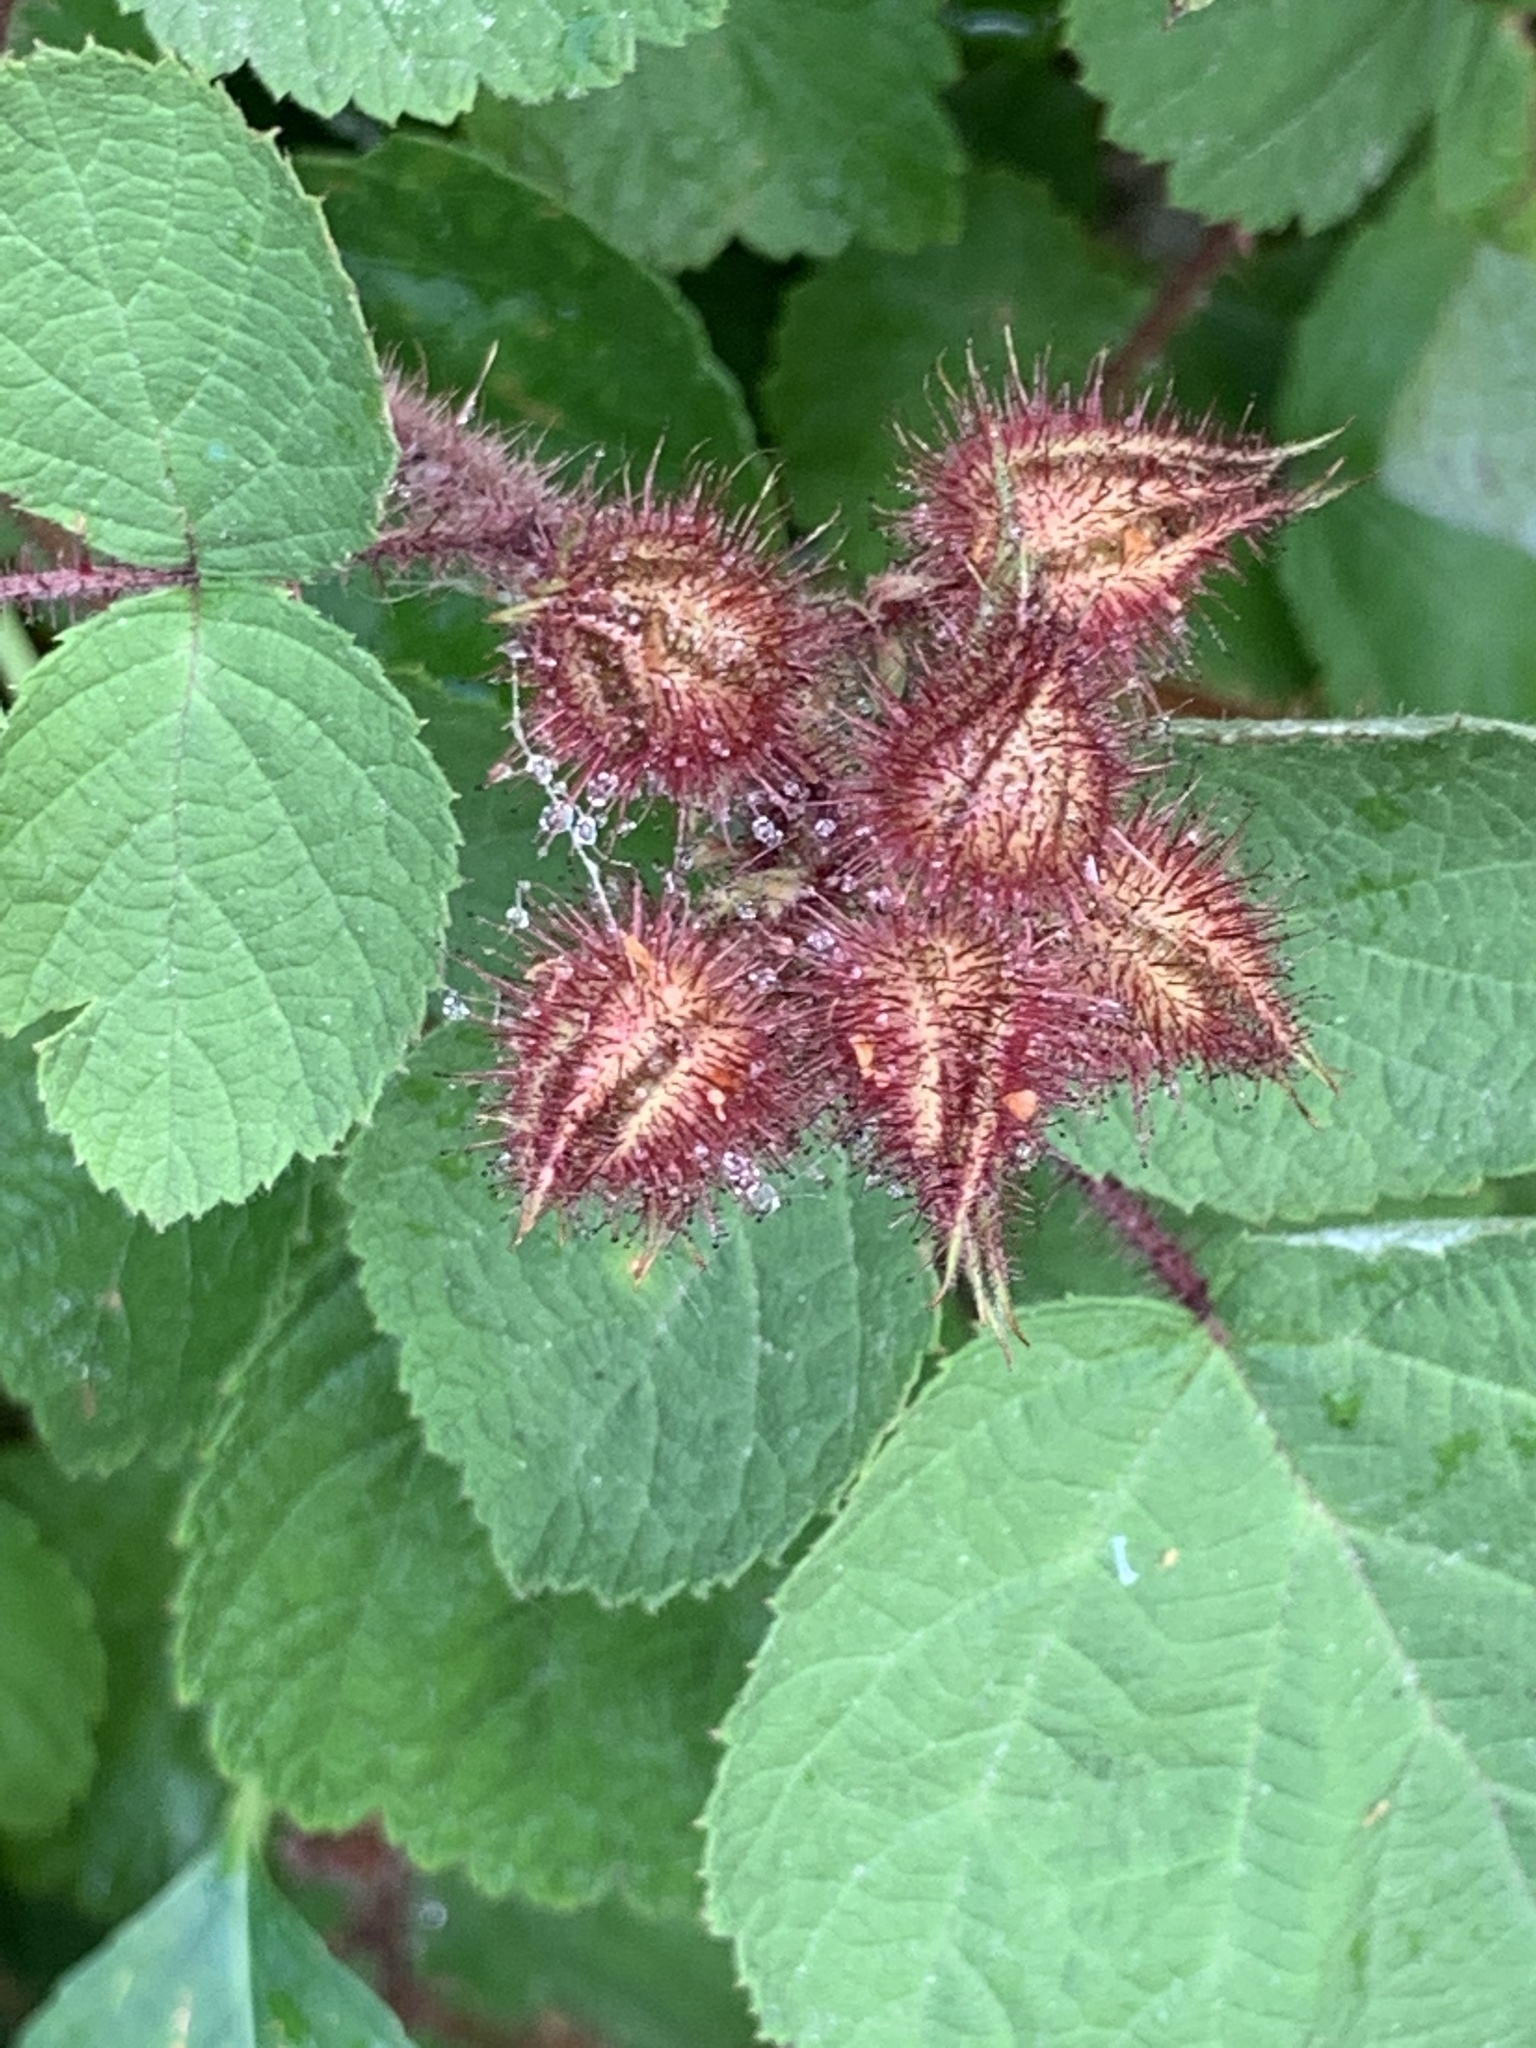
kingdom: Plantae
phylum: Tracheophyta
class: Magnoliopsida
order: Rosales
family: Rosaceae
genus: Rubus
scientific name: Rubus phoenicolasius
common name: Japanese wineberry
